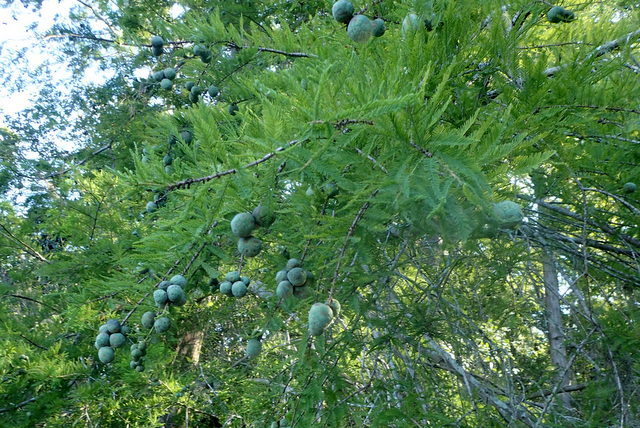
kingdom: Plantae
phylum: Tracheophyta
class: Pinopsida
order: Pinales
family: Cupressaceae
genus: Taxodium
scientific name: Taxodium distichum
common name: Bald cypress
